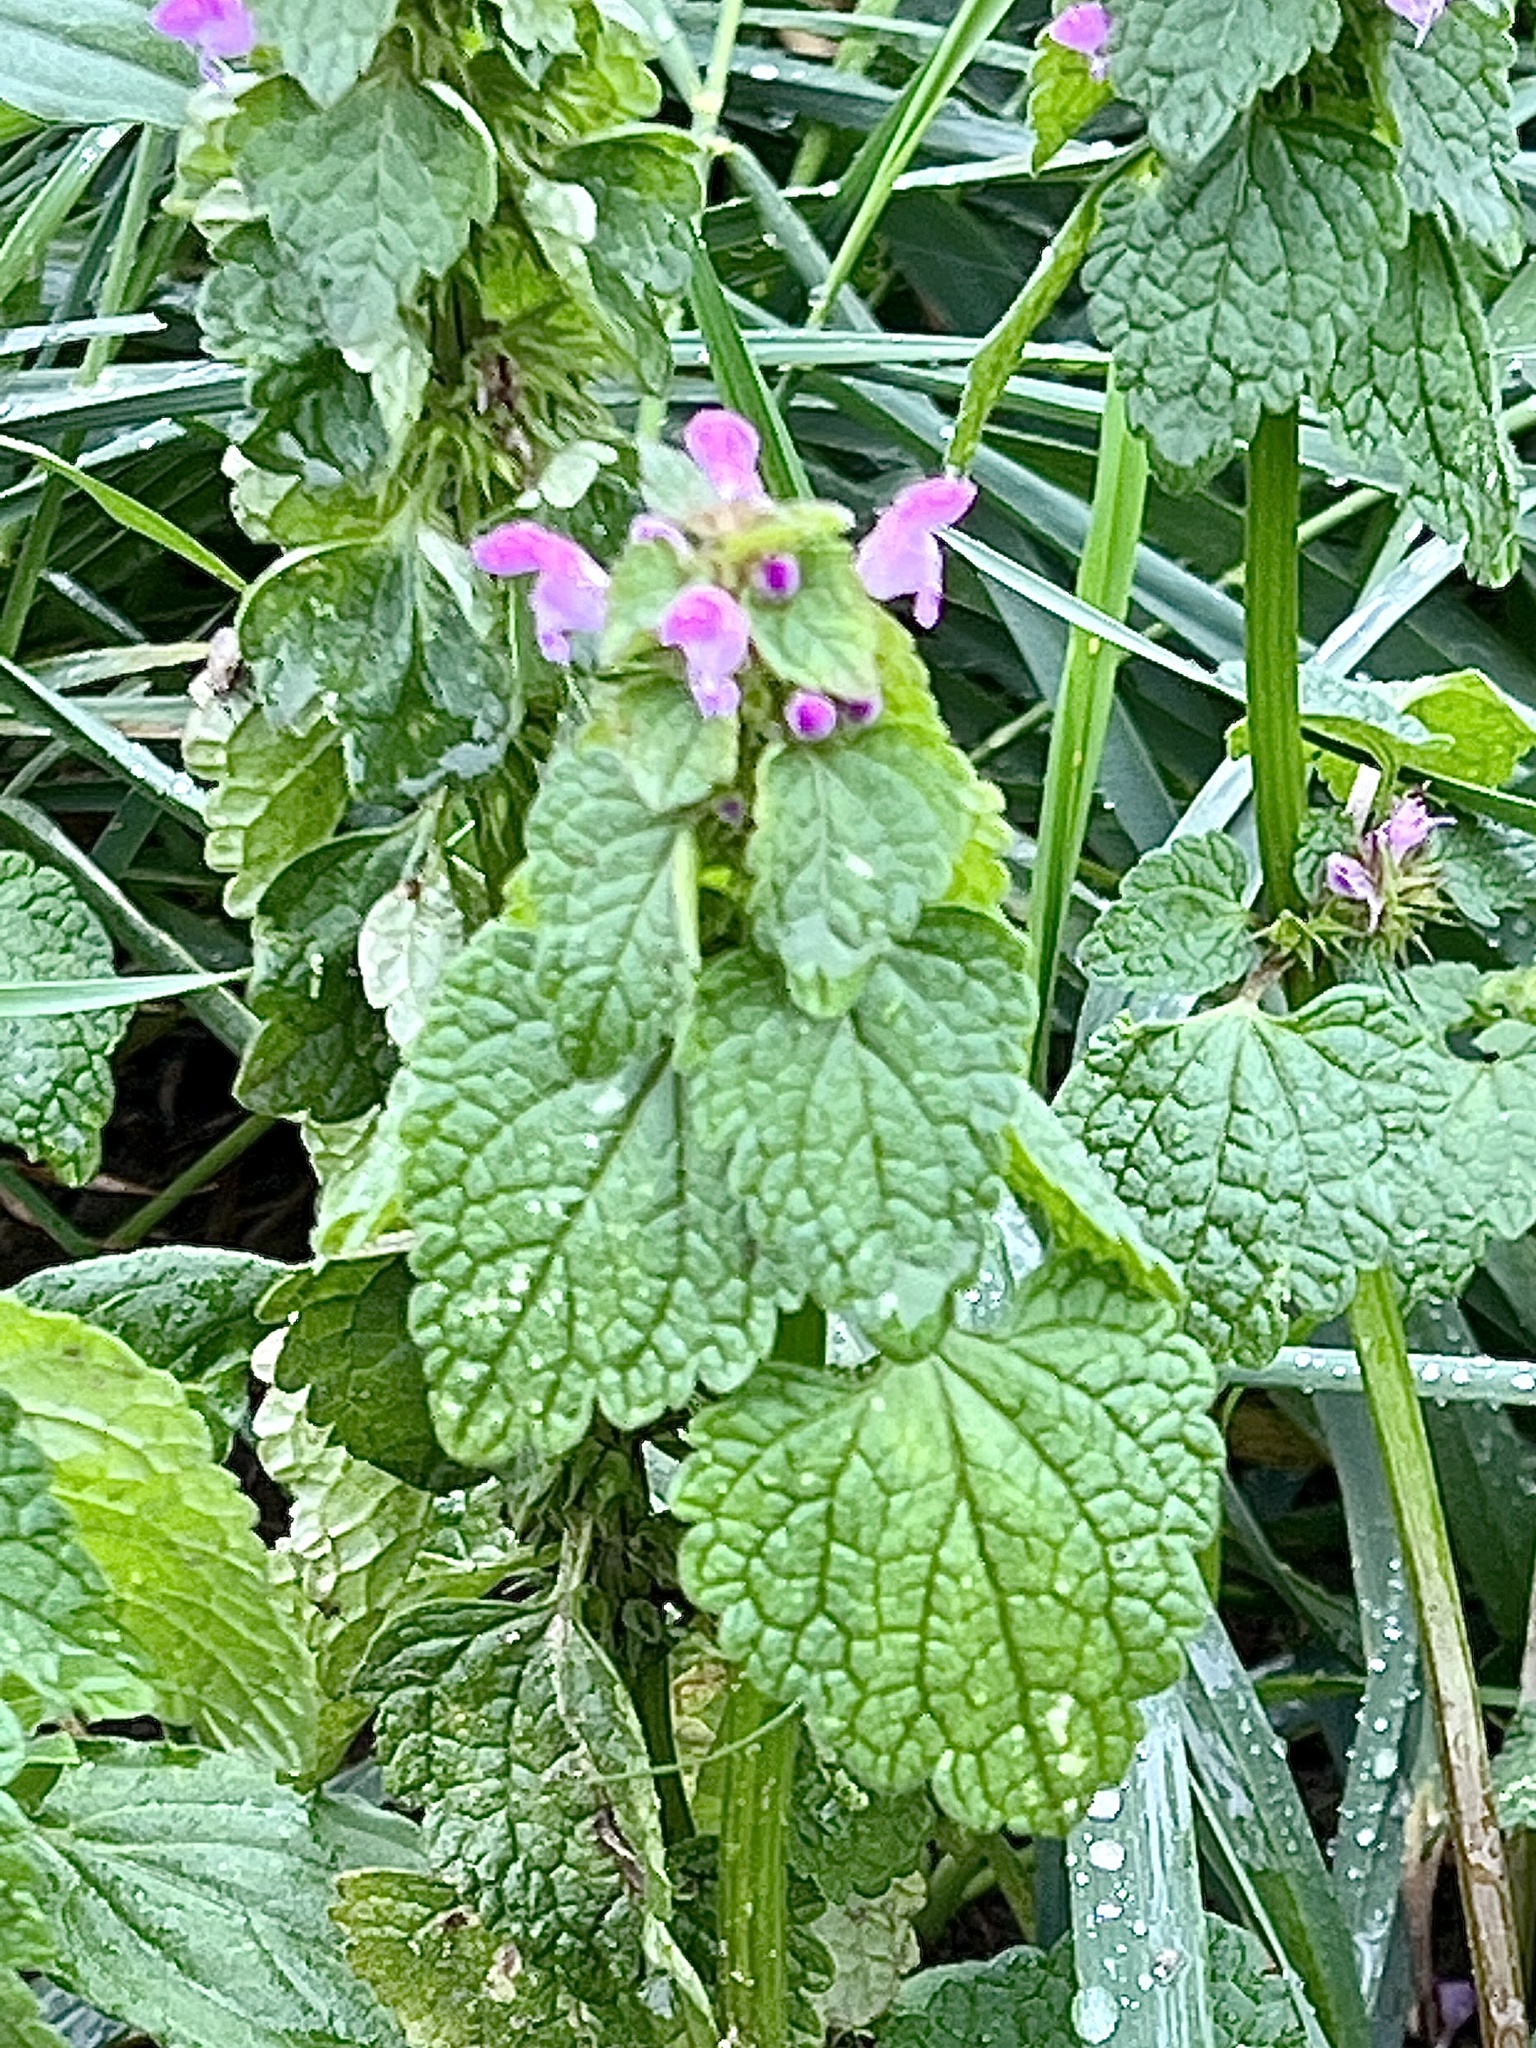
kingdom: Plantae
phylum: Tracheophyta
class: Magnoliopsida
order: Lamiales
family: Lamiaceae
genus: Lamium
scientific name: Lamium purpureum
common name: Red dead-nettle
